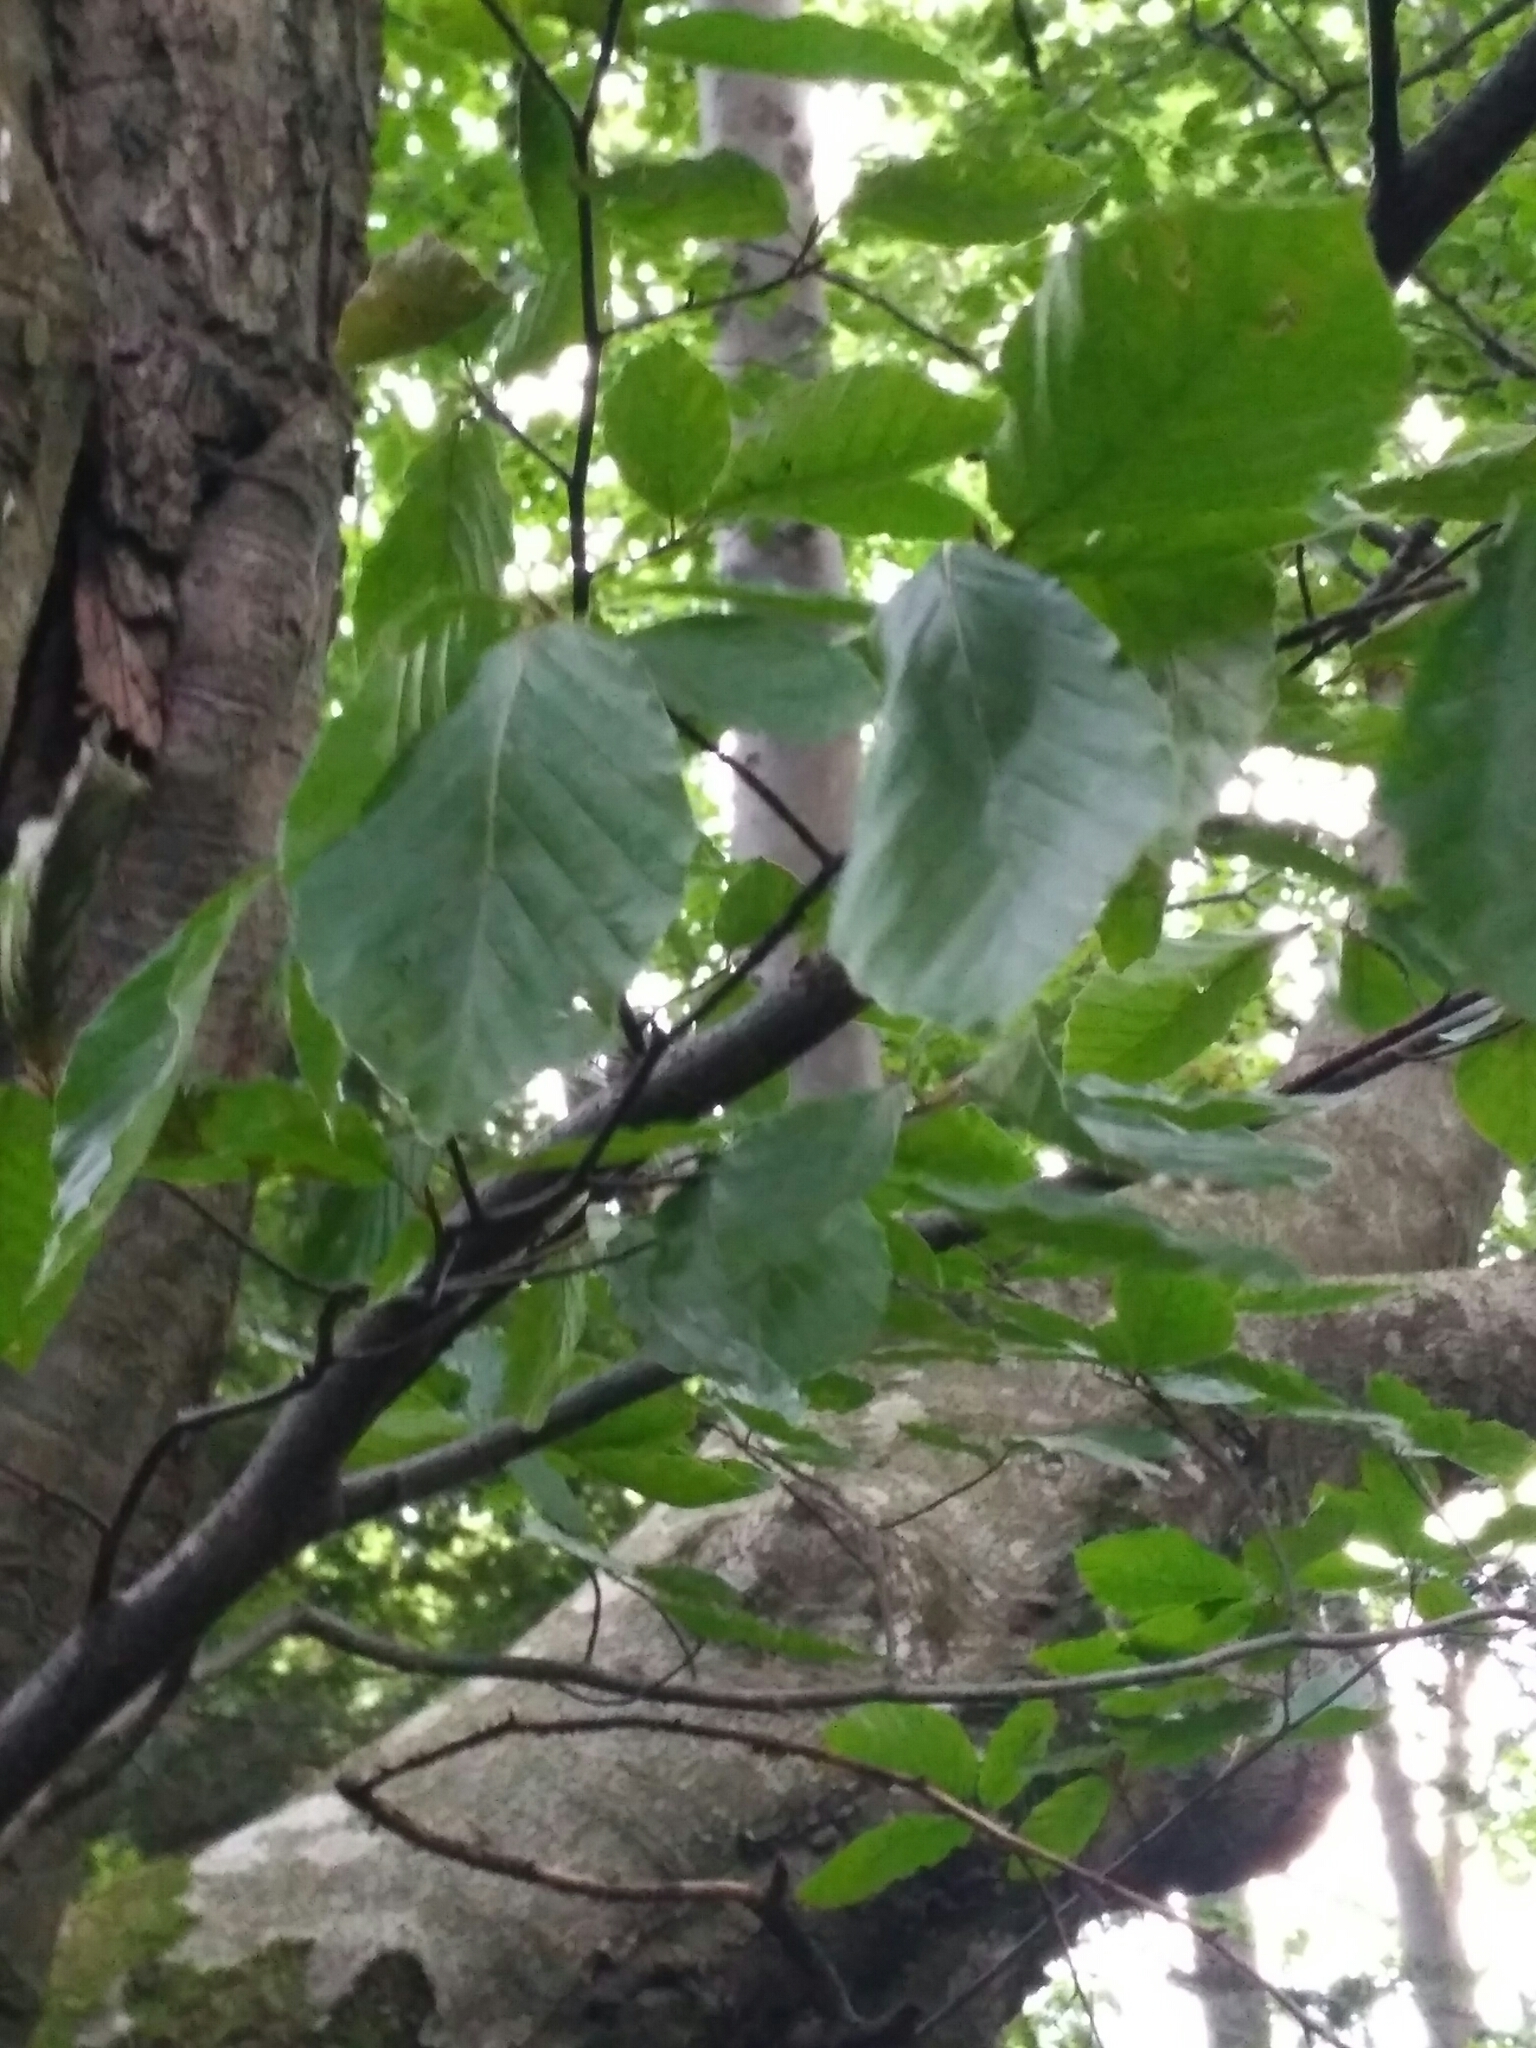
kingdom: Plantae
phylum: Tracheophyta
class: Magnoliopsida
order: Fagales
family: Fagaceae
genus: Fagus
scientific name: Fagus sylvatica
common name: Beech
